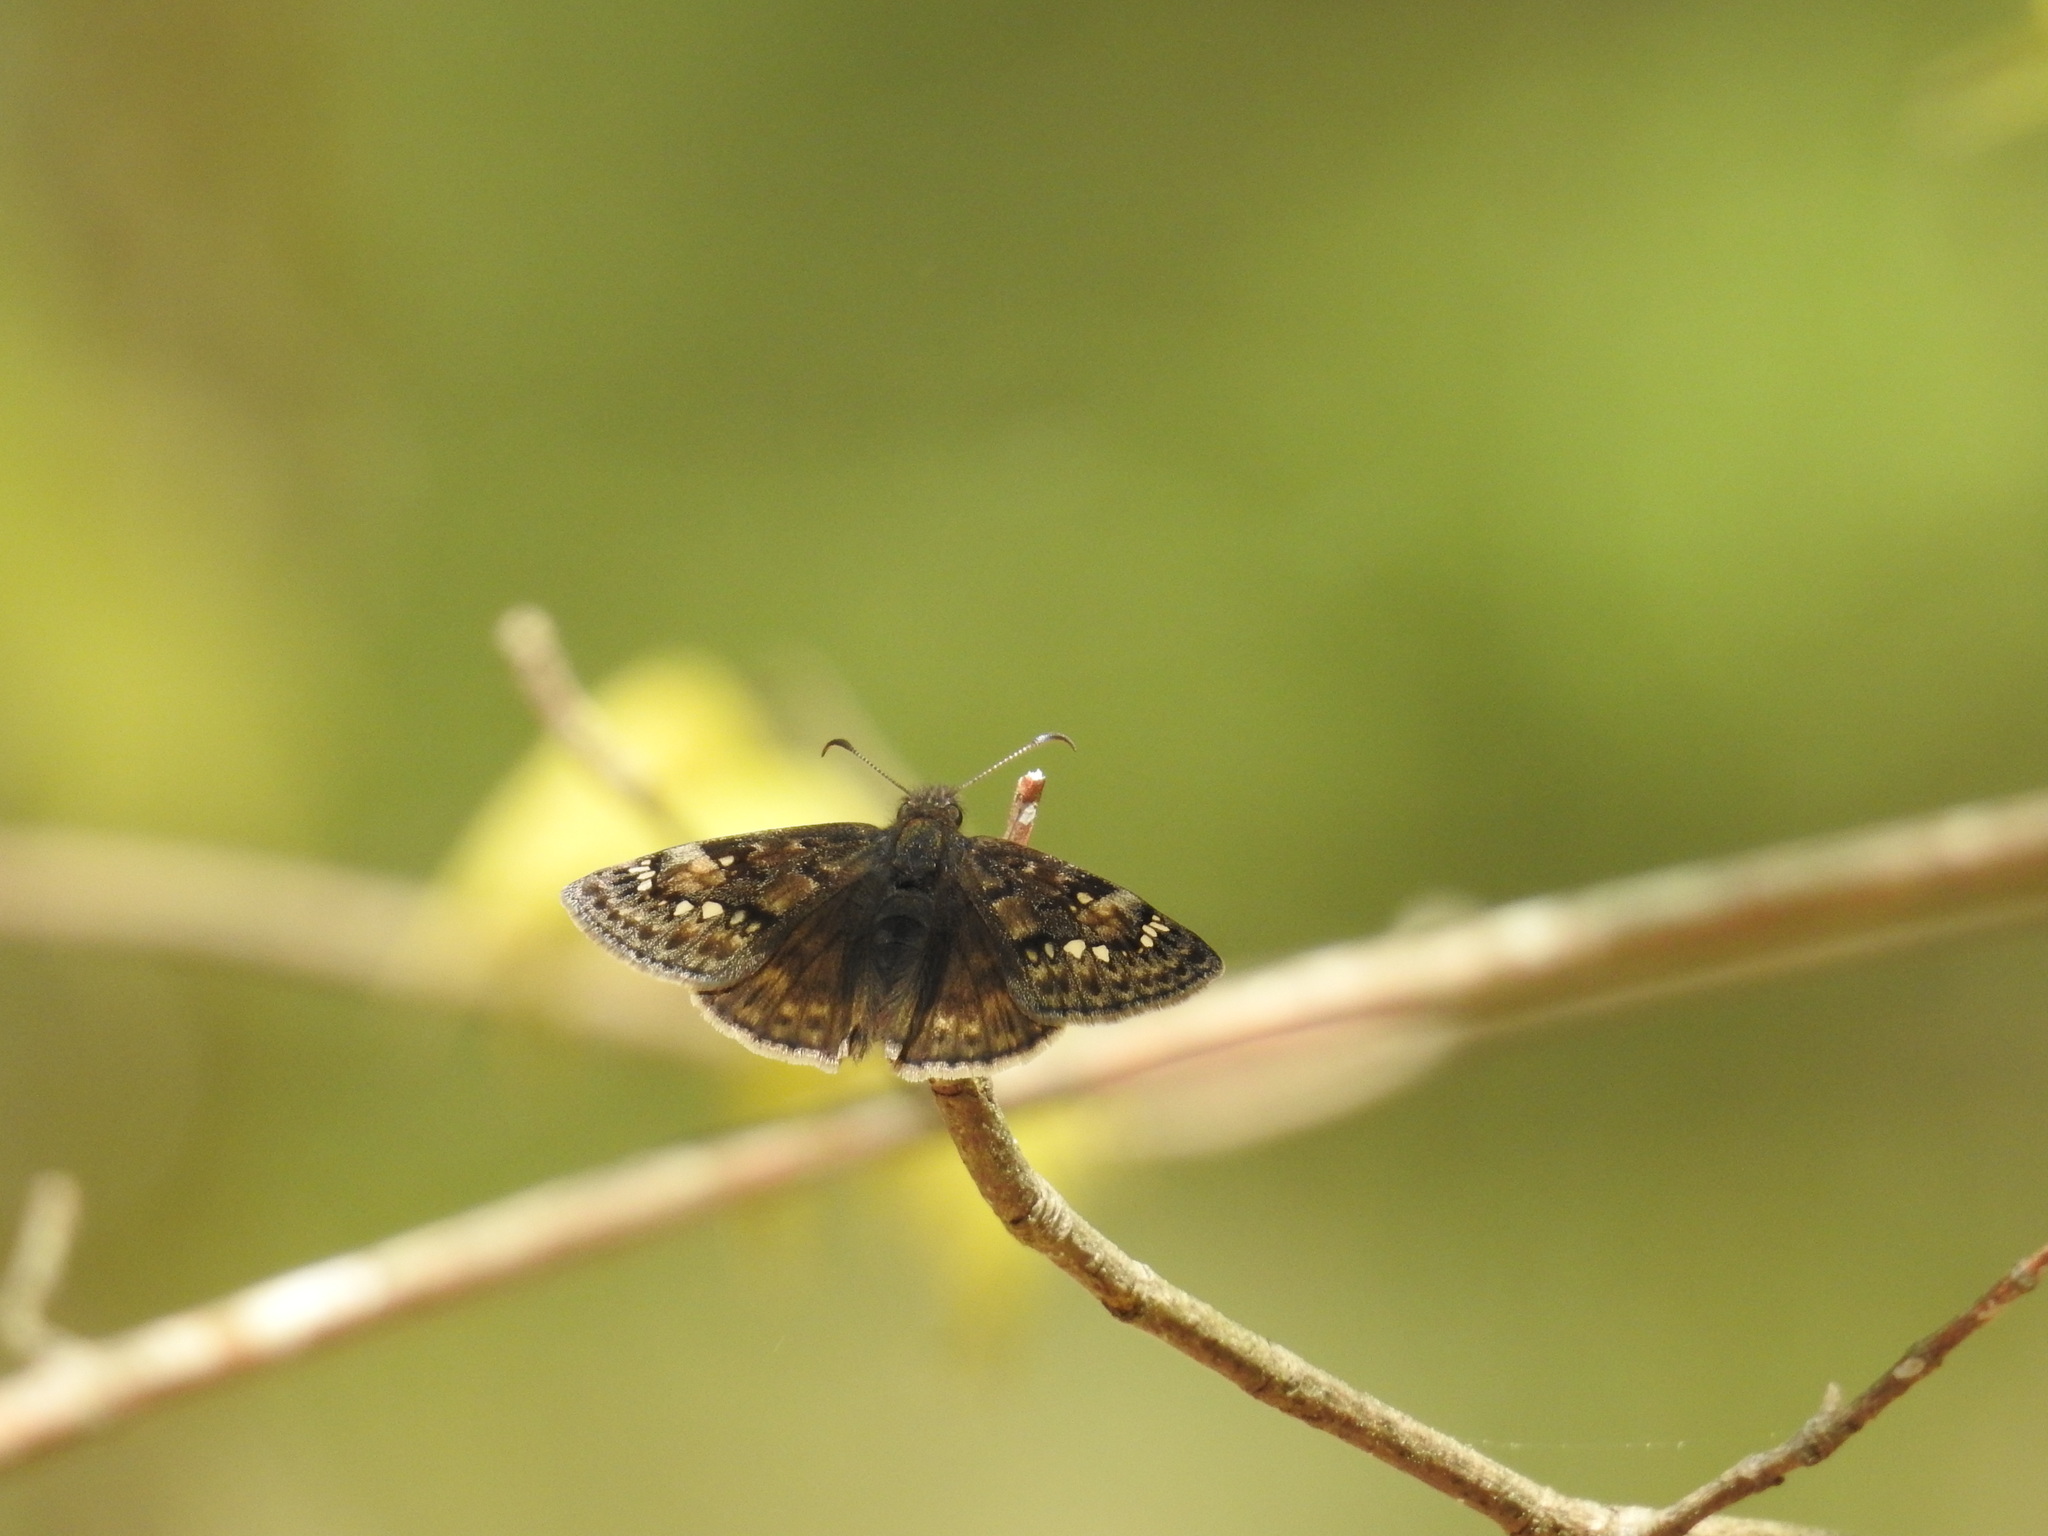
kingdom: Animalia
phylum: Arthropoda
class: Insecta
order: Lepidoptera
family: Hesperiidae
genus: Erynnis
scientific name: Erynnis juvenalis
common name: Juvenal's duskywing
